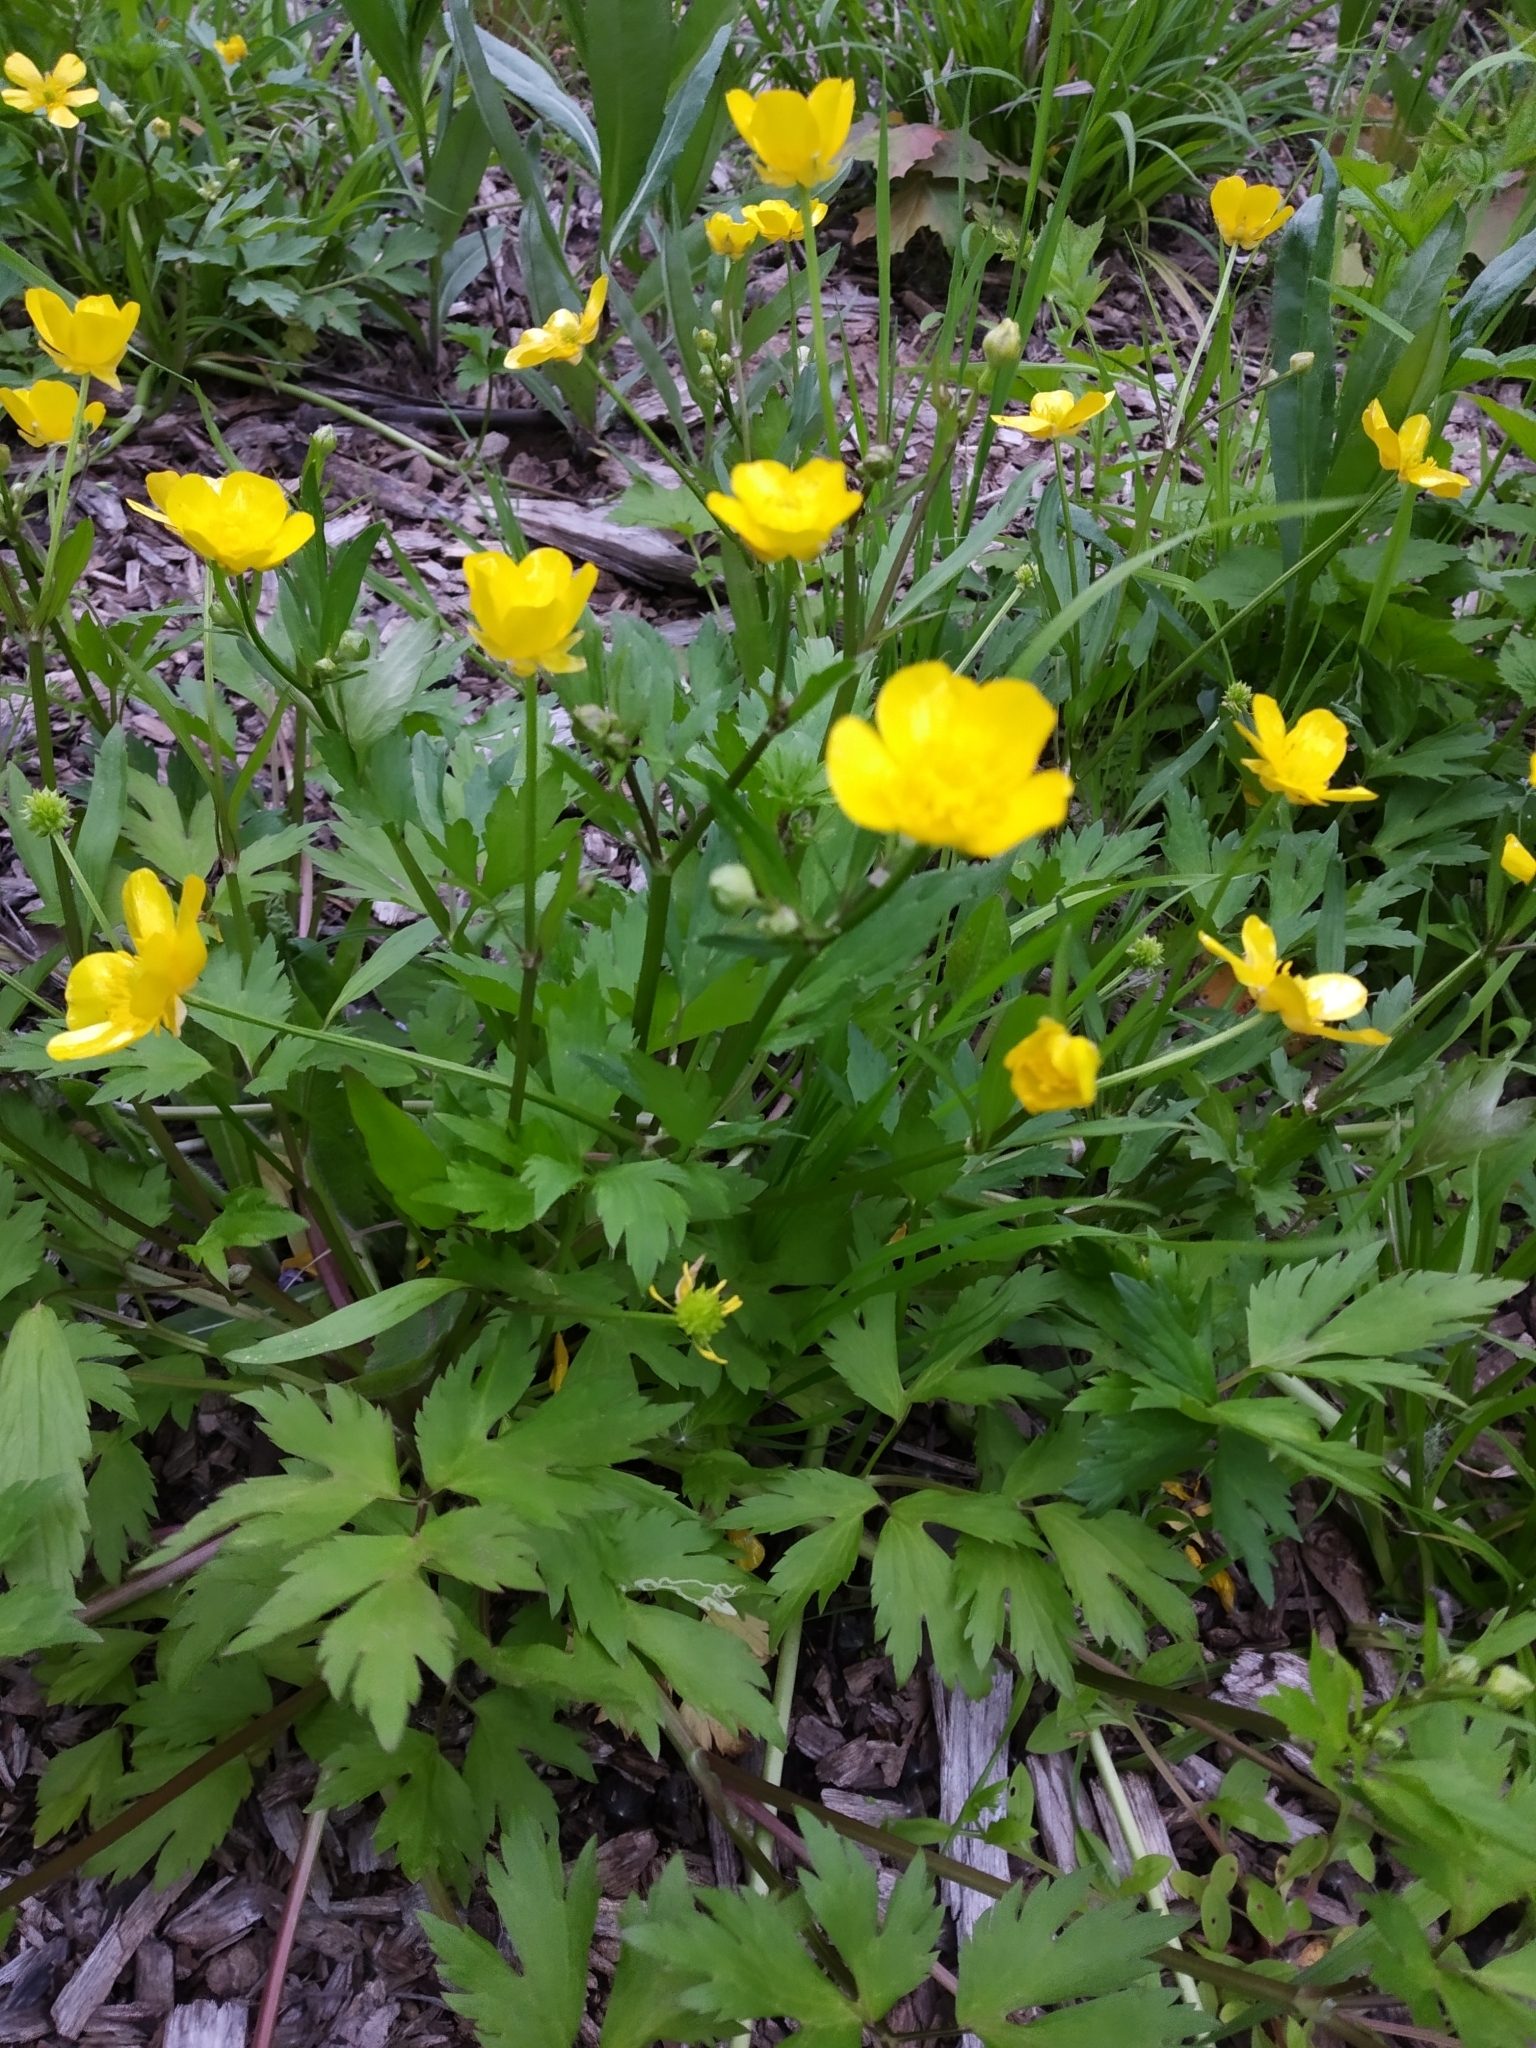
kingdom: Plantae
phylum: Tracheophyta
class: Magnoliopsida
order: Ranunculales
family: Ranunculaceae
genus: Ranunculus
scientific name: Ranunculus repens
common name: Creeping buttercup
